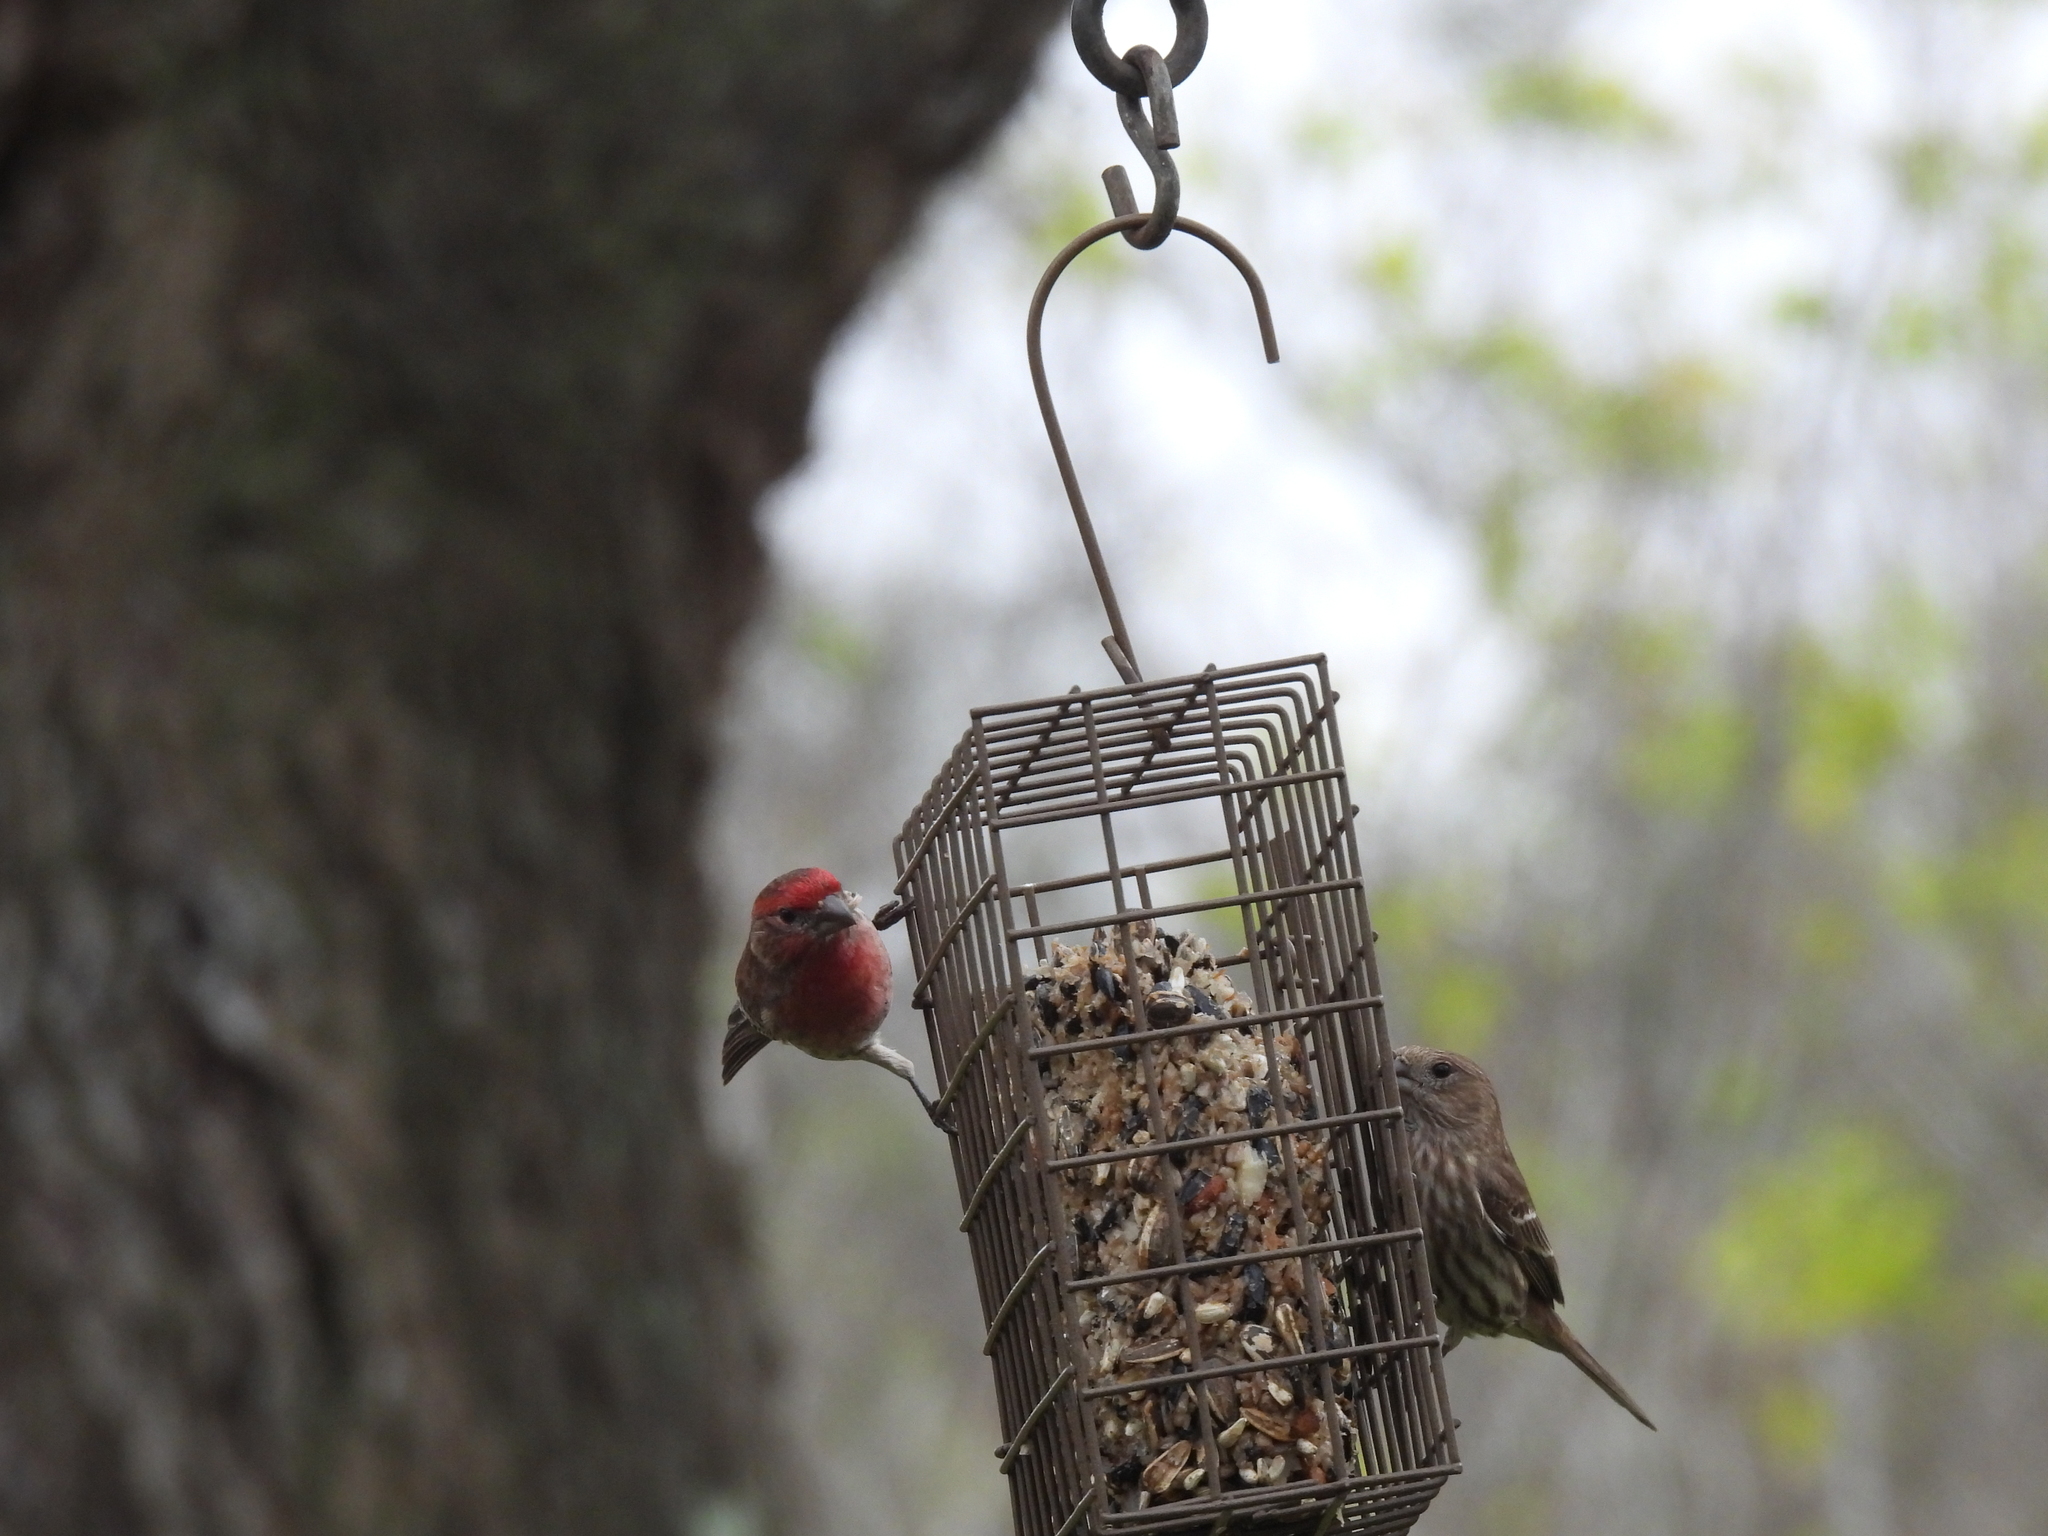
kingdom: Animalia
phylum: Chordata
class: Aves
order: Passeriformes
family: Fringillidae
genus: Haemorhous
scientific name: Haemorhous mexicanus
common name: House finch
